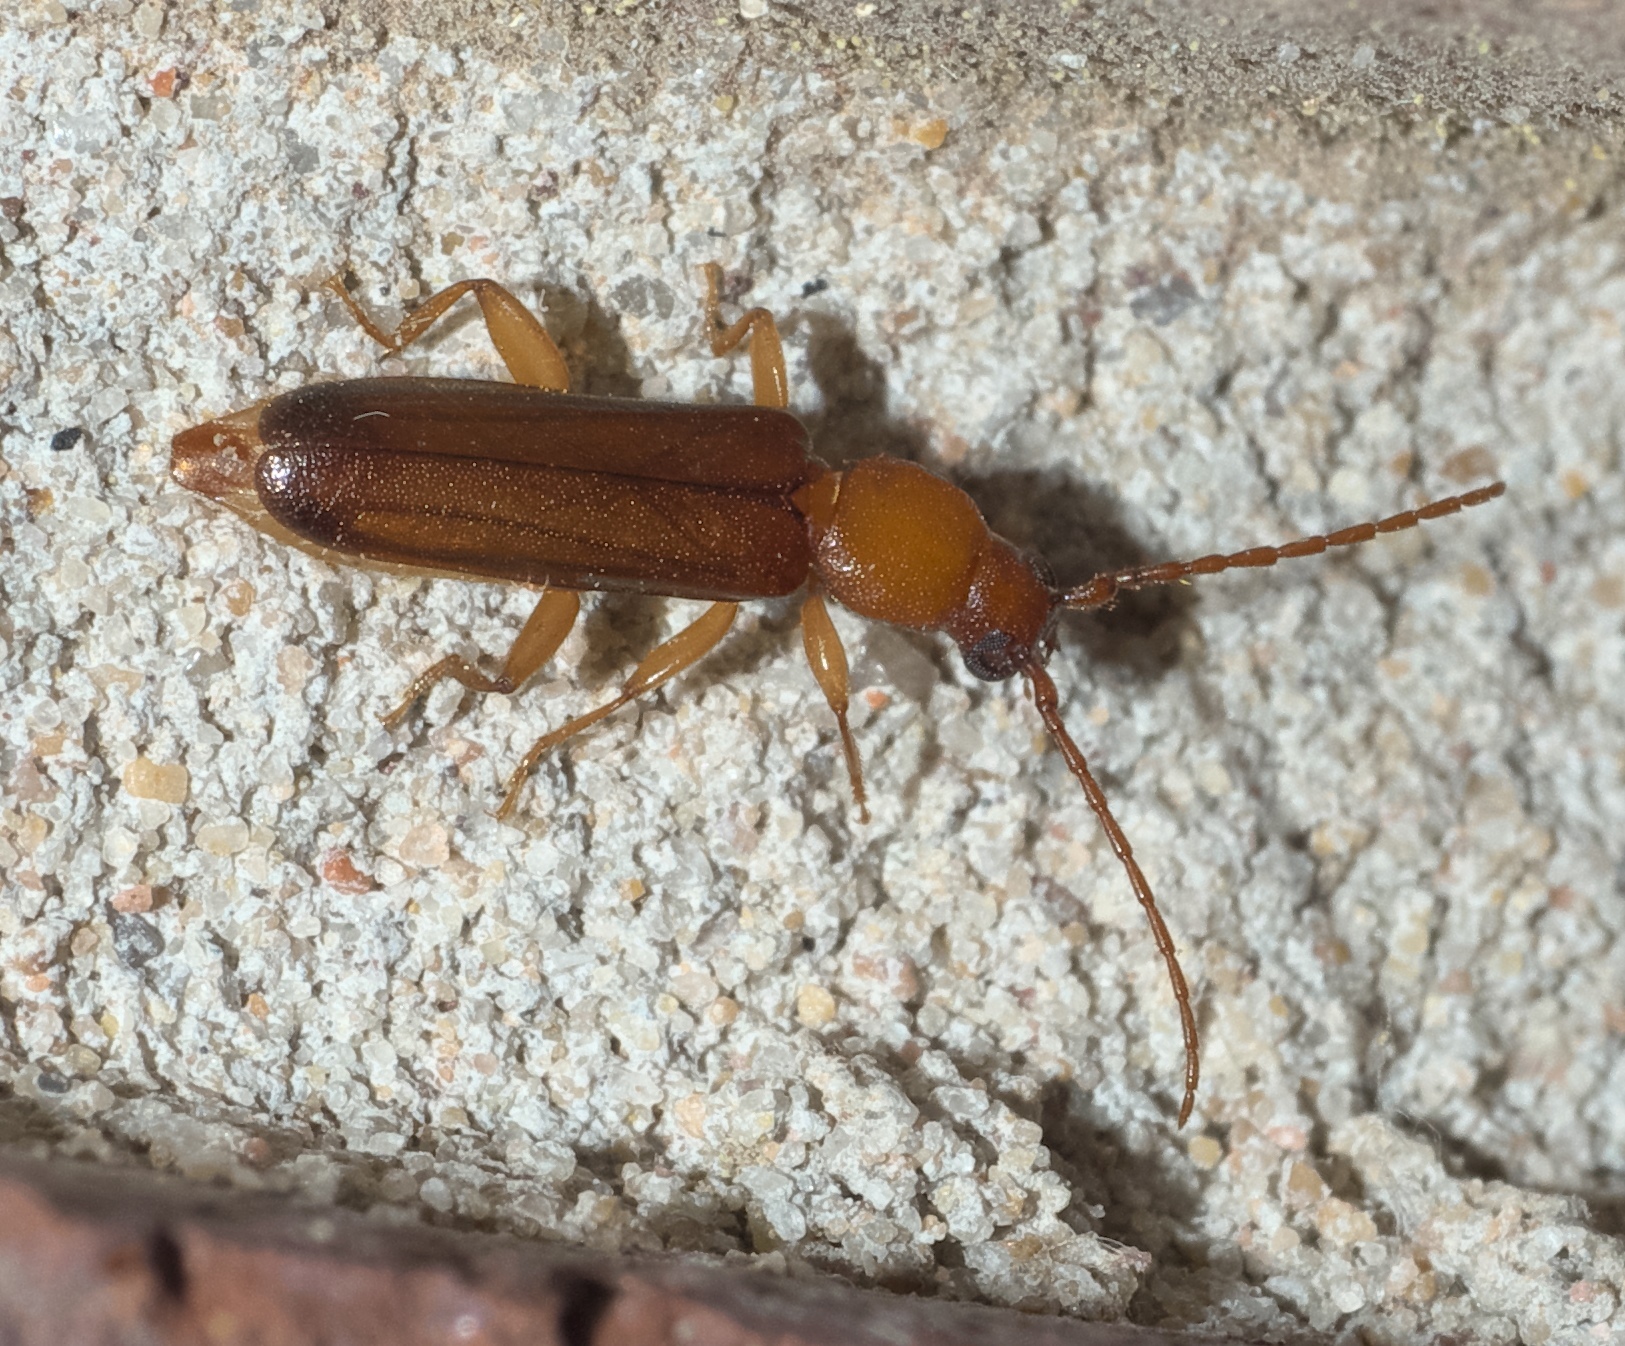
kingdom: Animalia
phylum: Arthropoda
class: Insecta
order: Coleoptera
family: Cerambycidae
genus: Smodicum
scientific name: Smodicum cucujiforme
